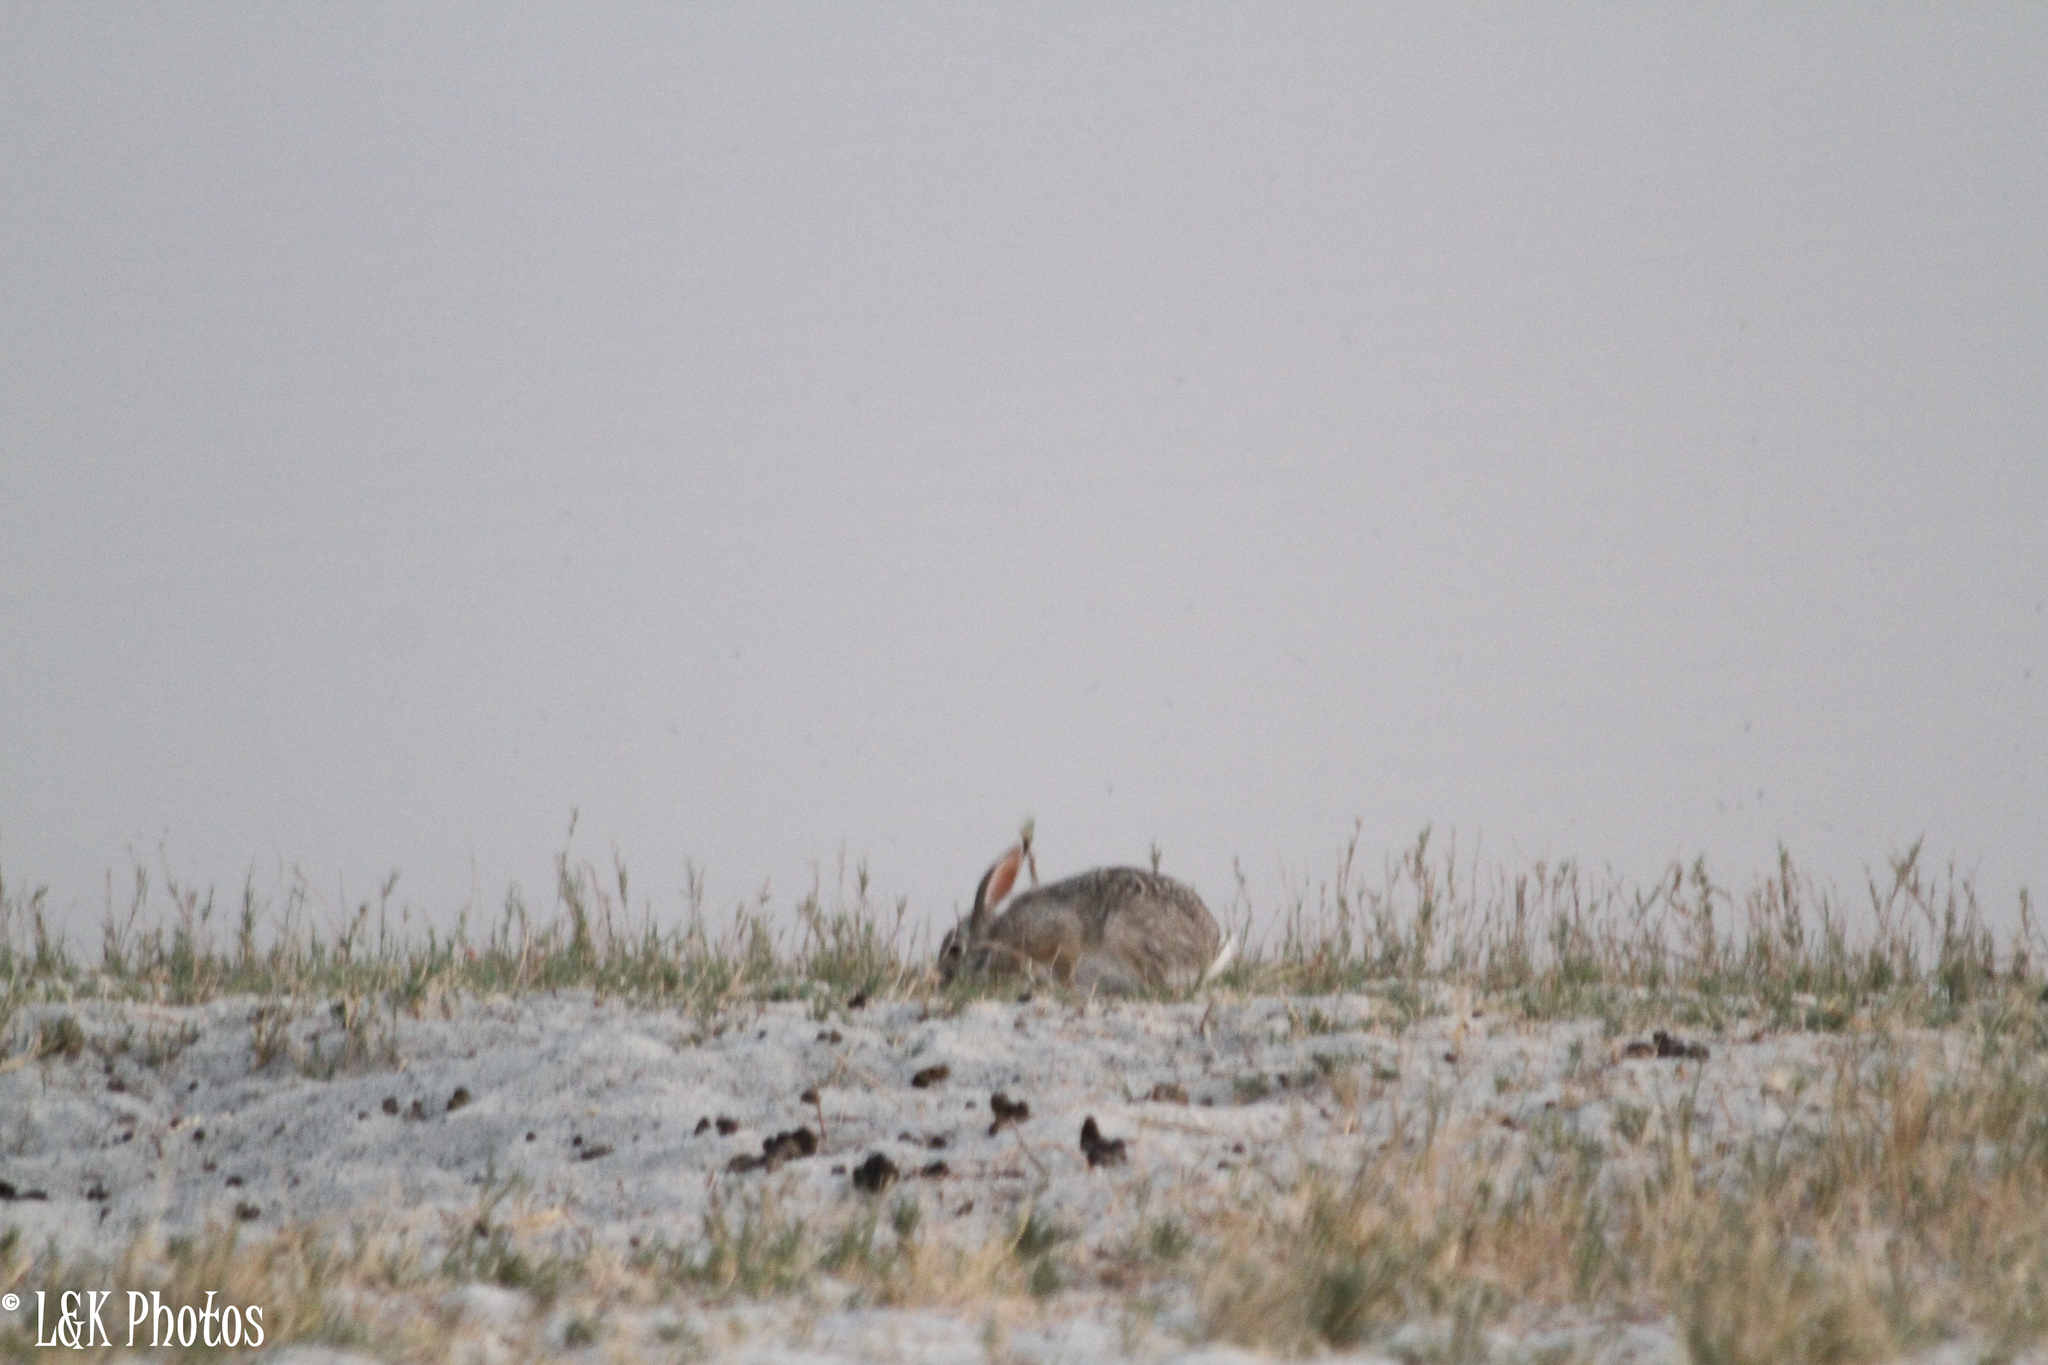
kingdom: Animalia
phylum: Chordata
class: Mammalia
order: Lagomorpha
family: Leporidae
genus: Lepus
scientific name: Lepus saxatilis
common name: Scrub hare
